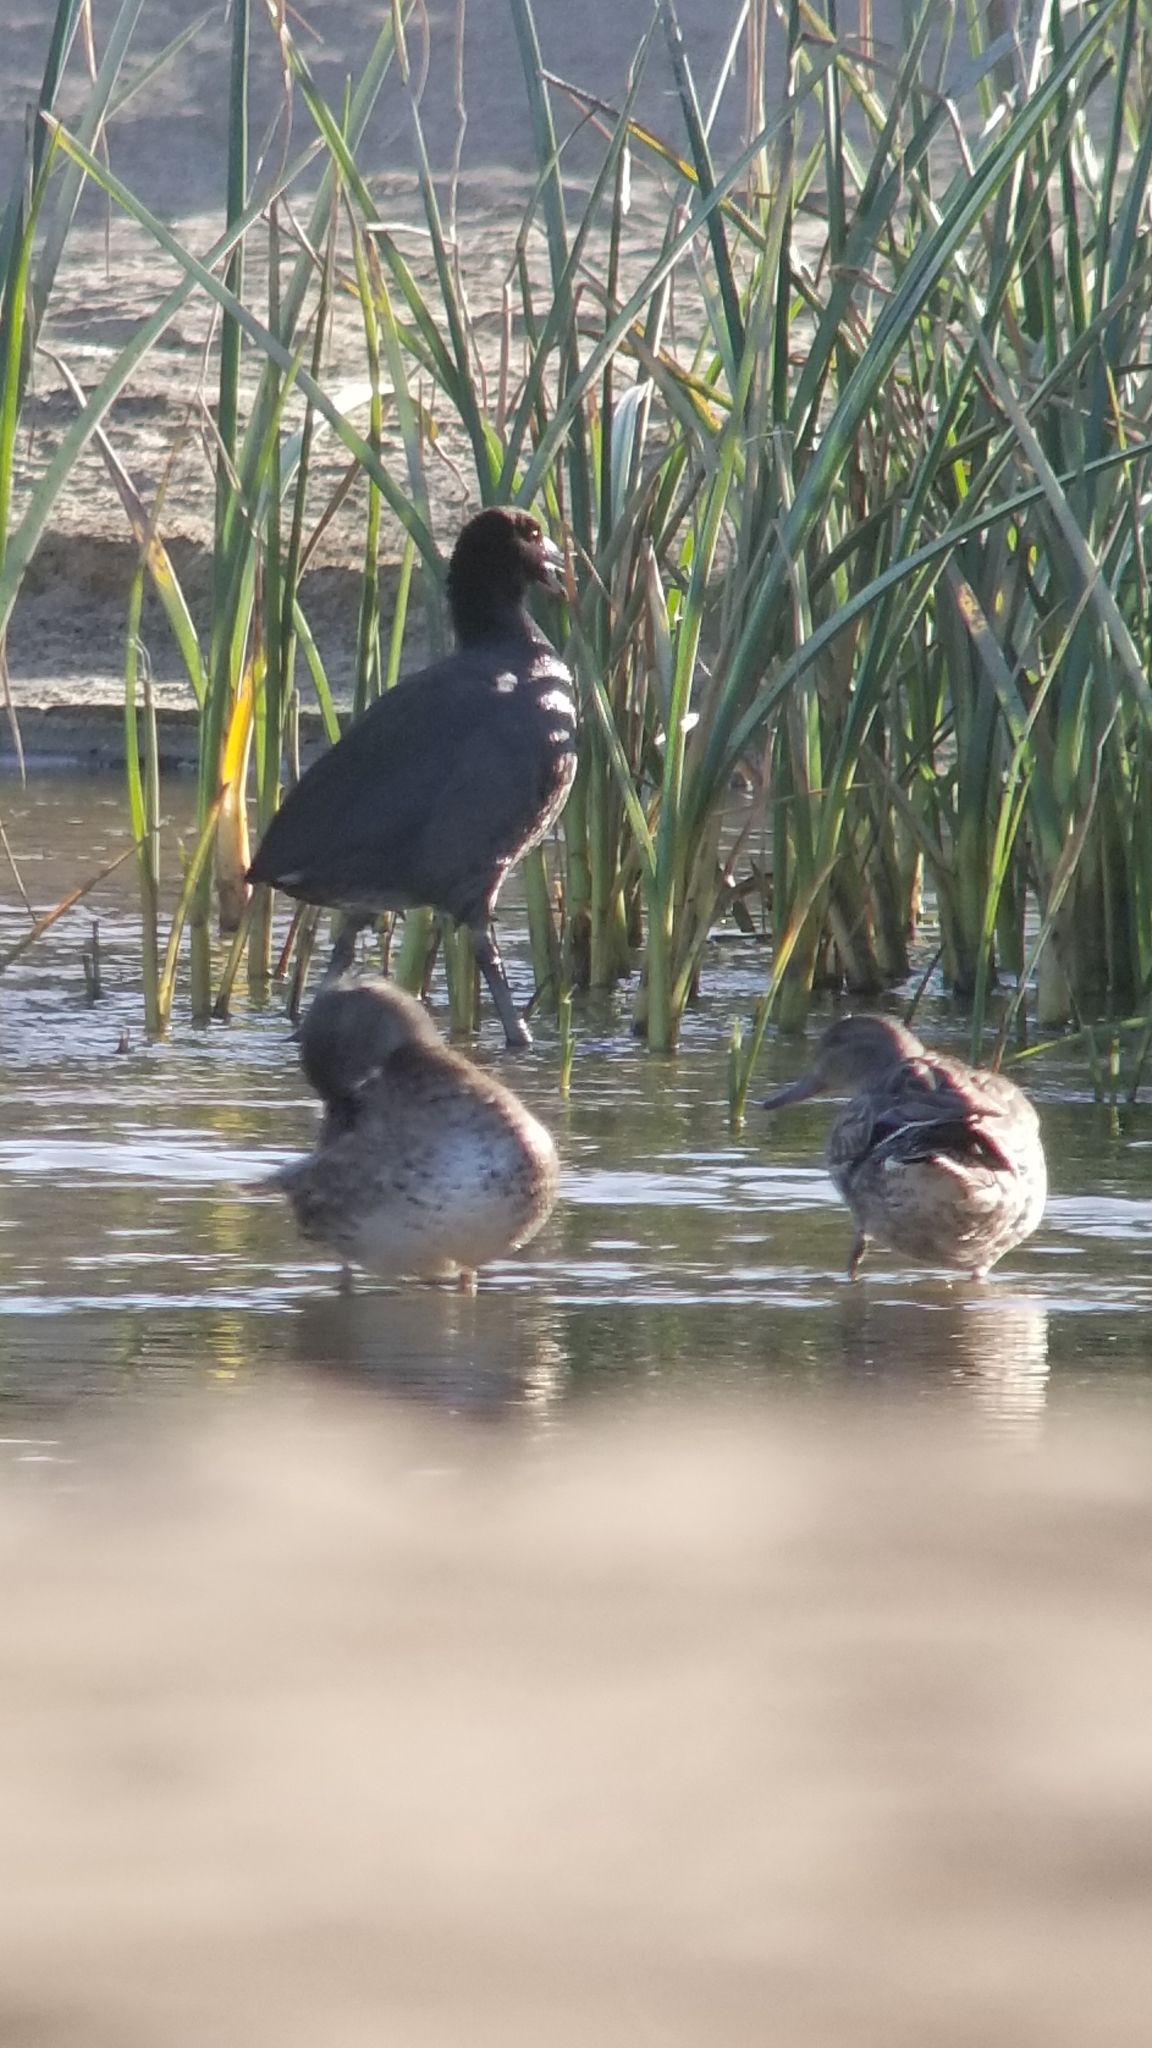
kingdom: Animalia
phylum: Chordata
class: Aves
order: Anseriformes
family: Anatidae
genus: Anas
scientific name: Anas platyrhynchos
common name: Mallard
